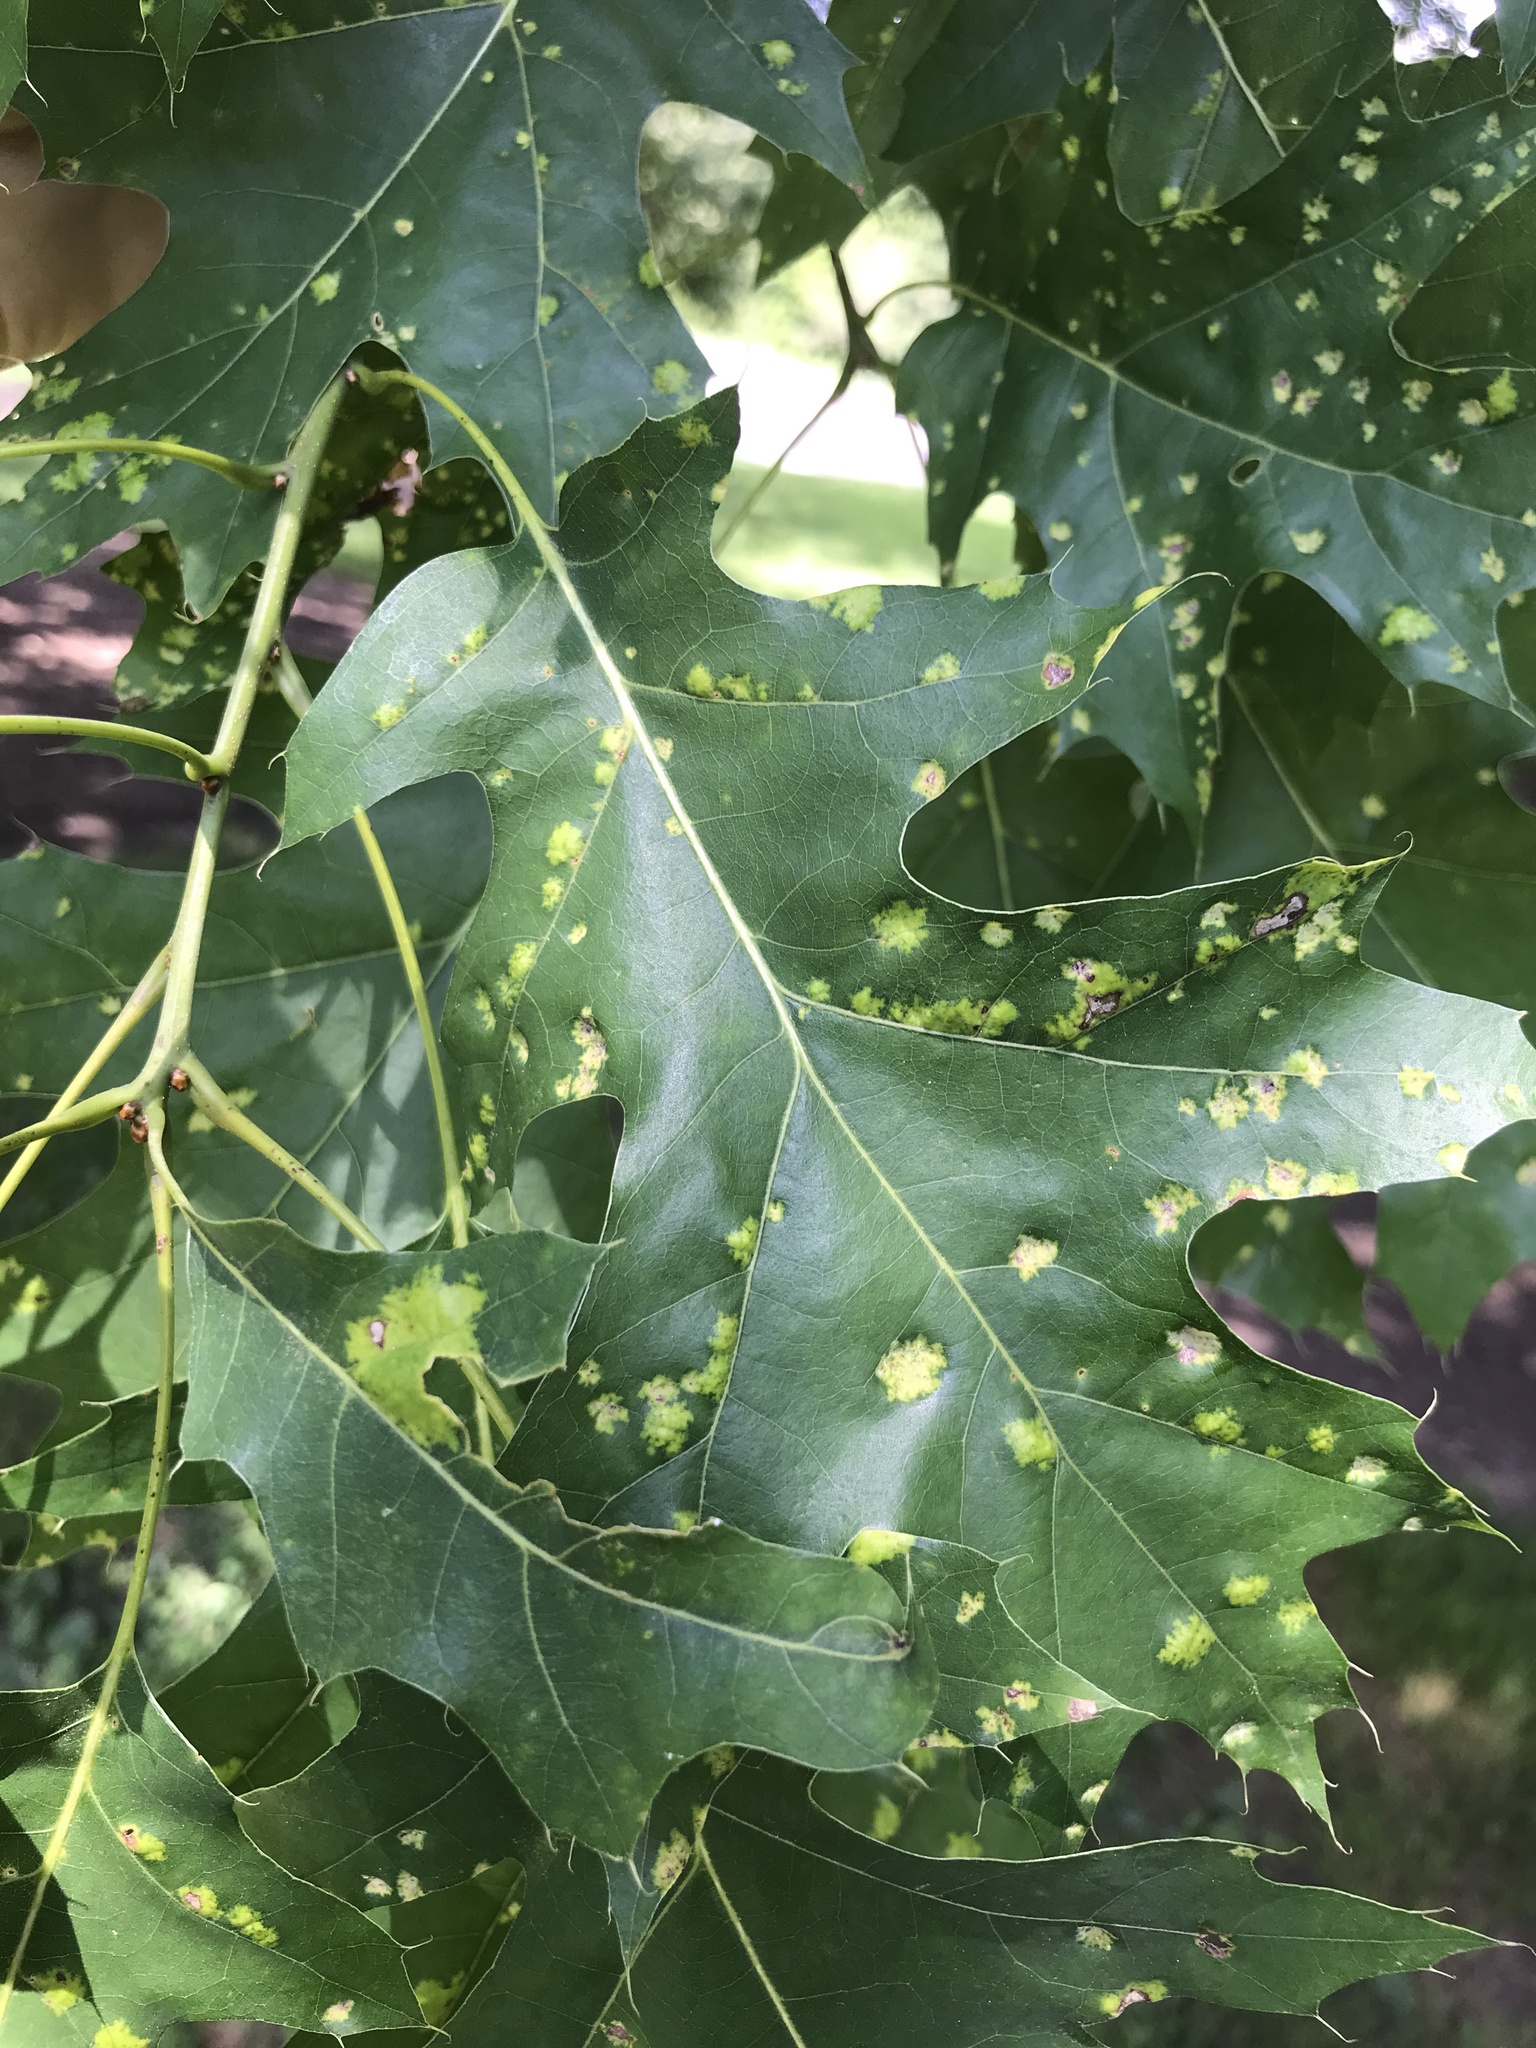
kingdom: Fungi
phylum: Ascomycota
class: Taphrinomycetes
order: Taphrinales
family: Taphrinaceae
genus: Taphrina
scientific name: Taphrina caerulescens
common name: Oak leaf blister
